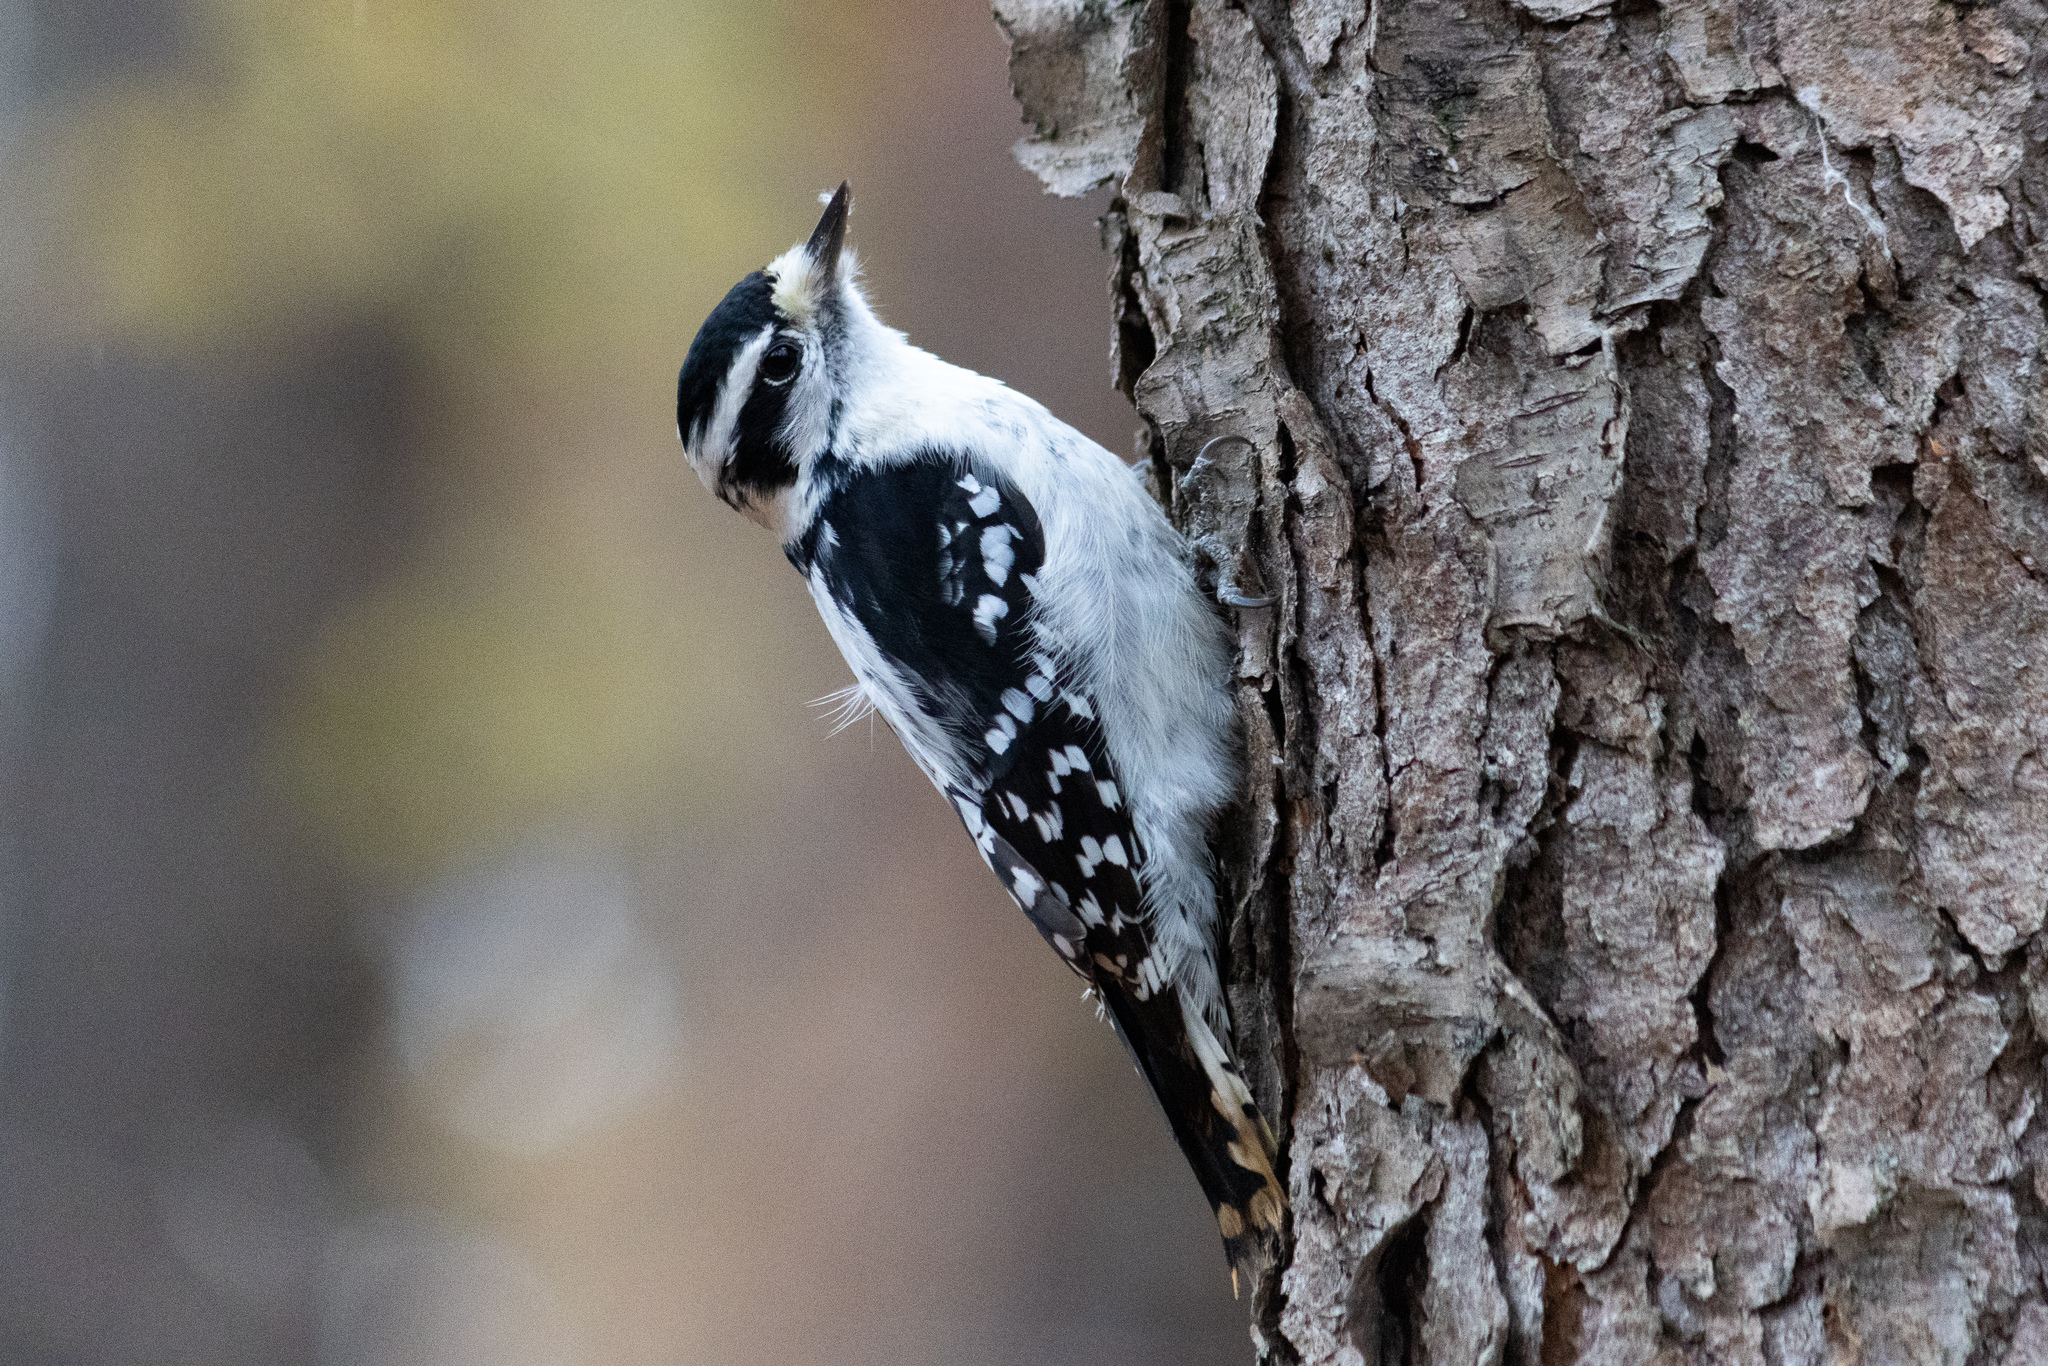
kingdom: Animalia
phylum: Chordata
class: Aves
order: Piciformes
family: Picidae
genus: Dryobates
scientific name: Dryobates pubescens
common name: Downy woodpecker
